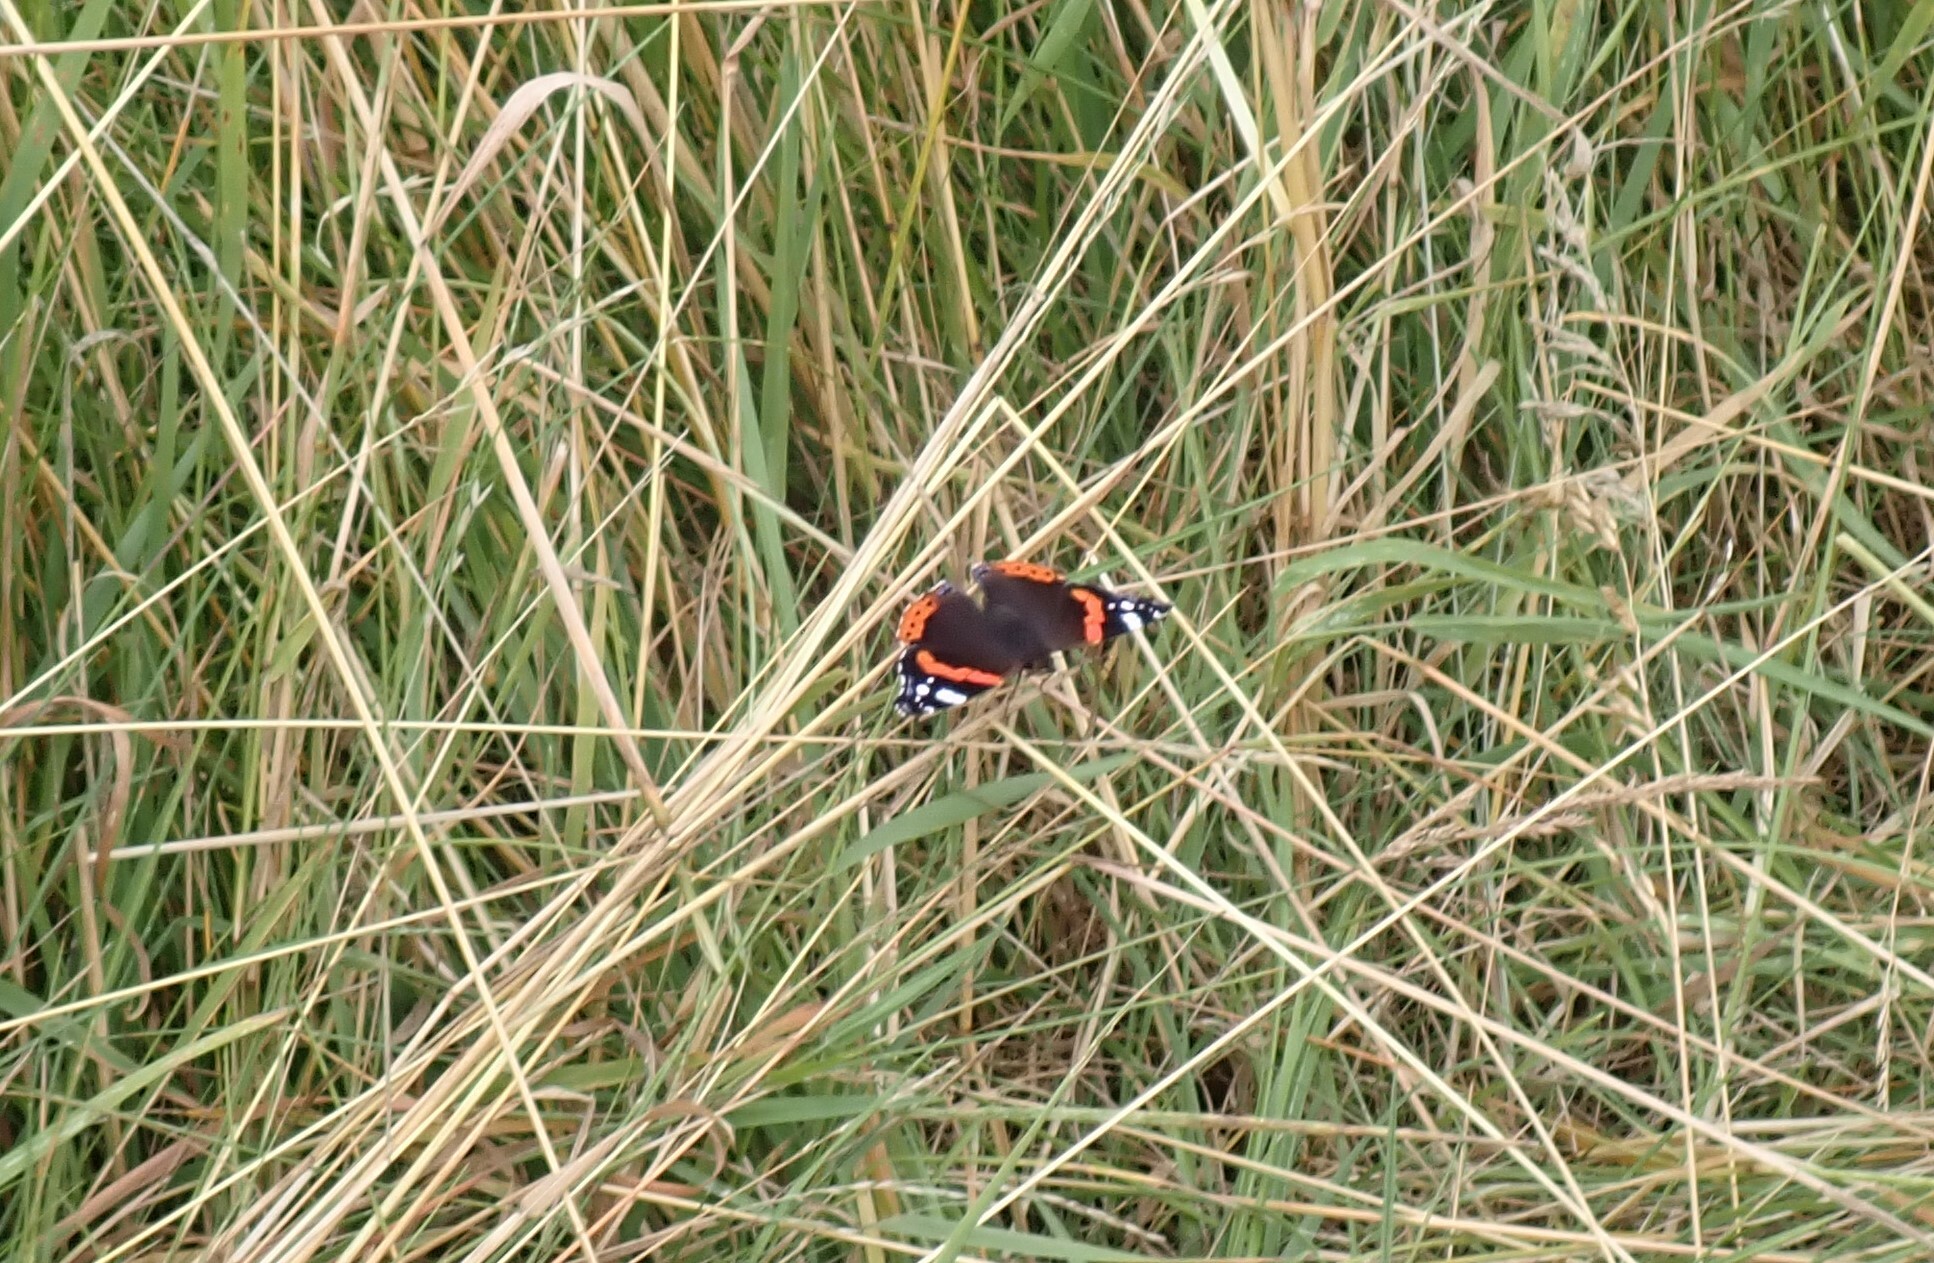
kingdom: Animalia
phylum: Arthropoda
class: Insecta
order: Lepidoptera
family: Nymphalidae
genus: Vanessa
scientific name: Vanessa atalanta
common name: Red admiral
